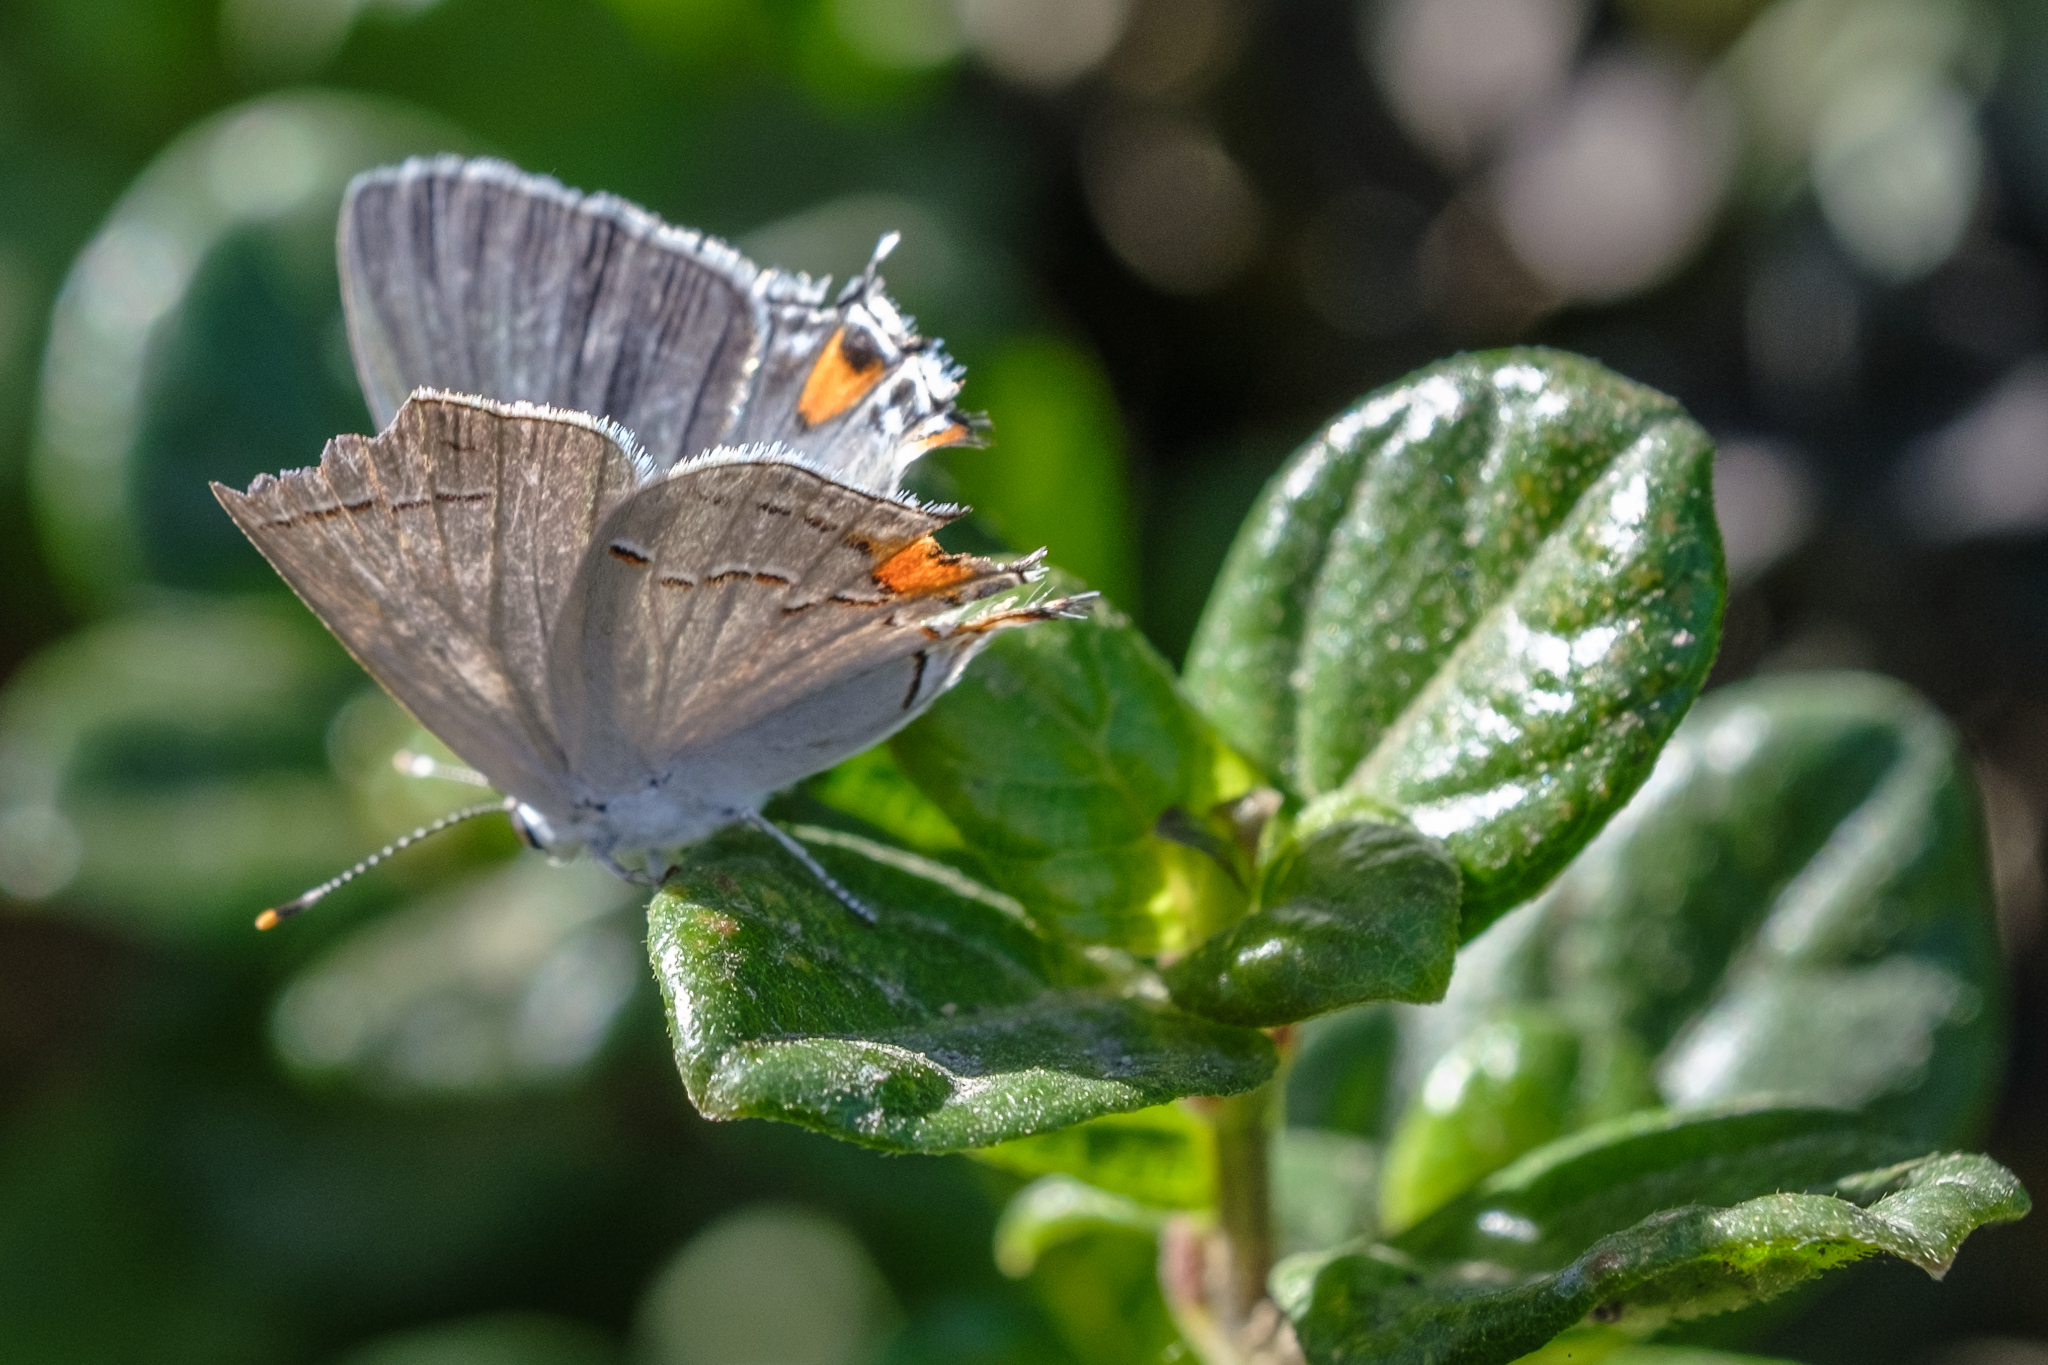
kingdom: Animalia
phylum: Arthropoda
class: Insecta
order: Lepidoptera
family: Lycaenidae
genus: Strymon
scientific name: Strymon melinus
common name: Gray hairstreak
